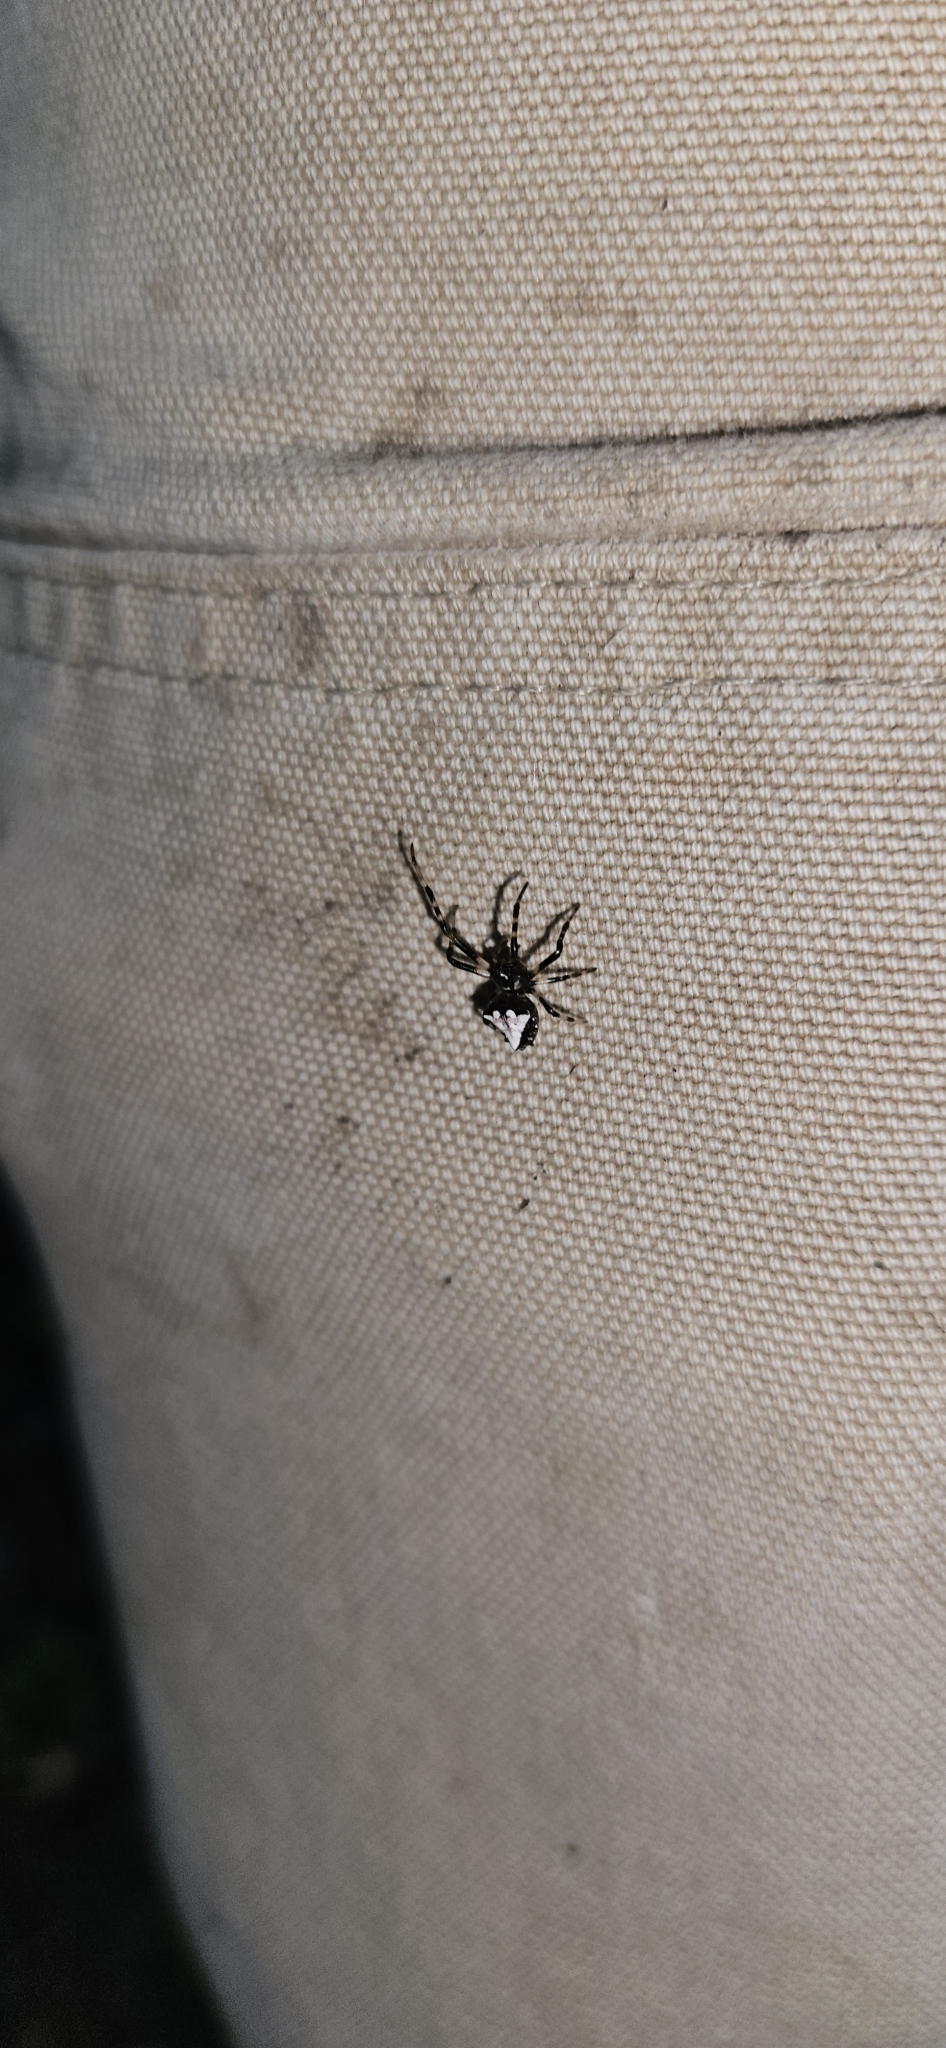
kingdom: Animalia
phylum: Arthropoda
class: Arachnida
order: Araneae
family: Araneidae
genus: Verrucosa
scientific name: Verrucosa arenata
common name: Orb weavers
